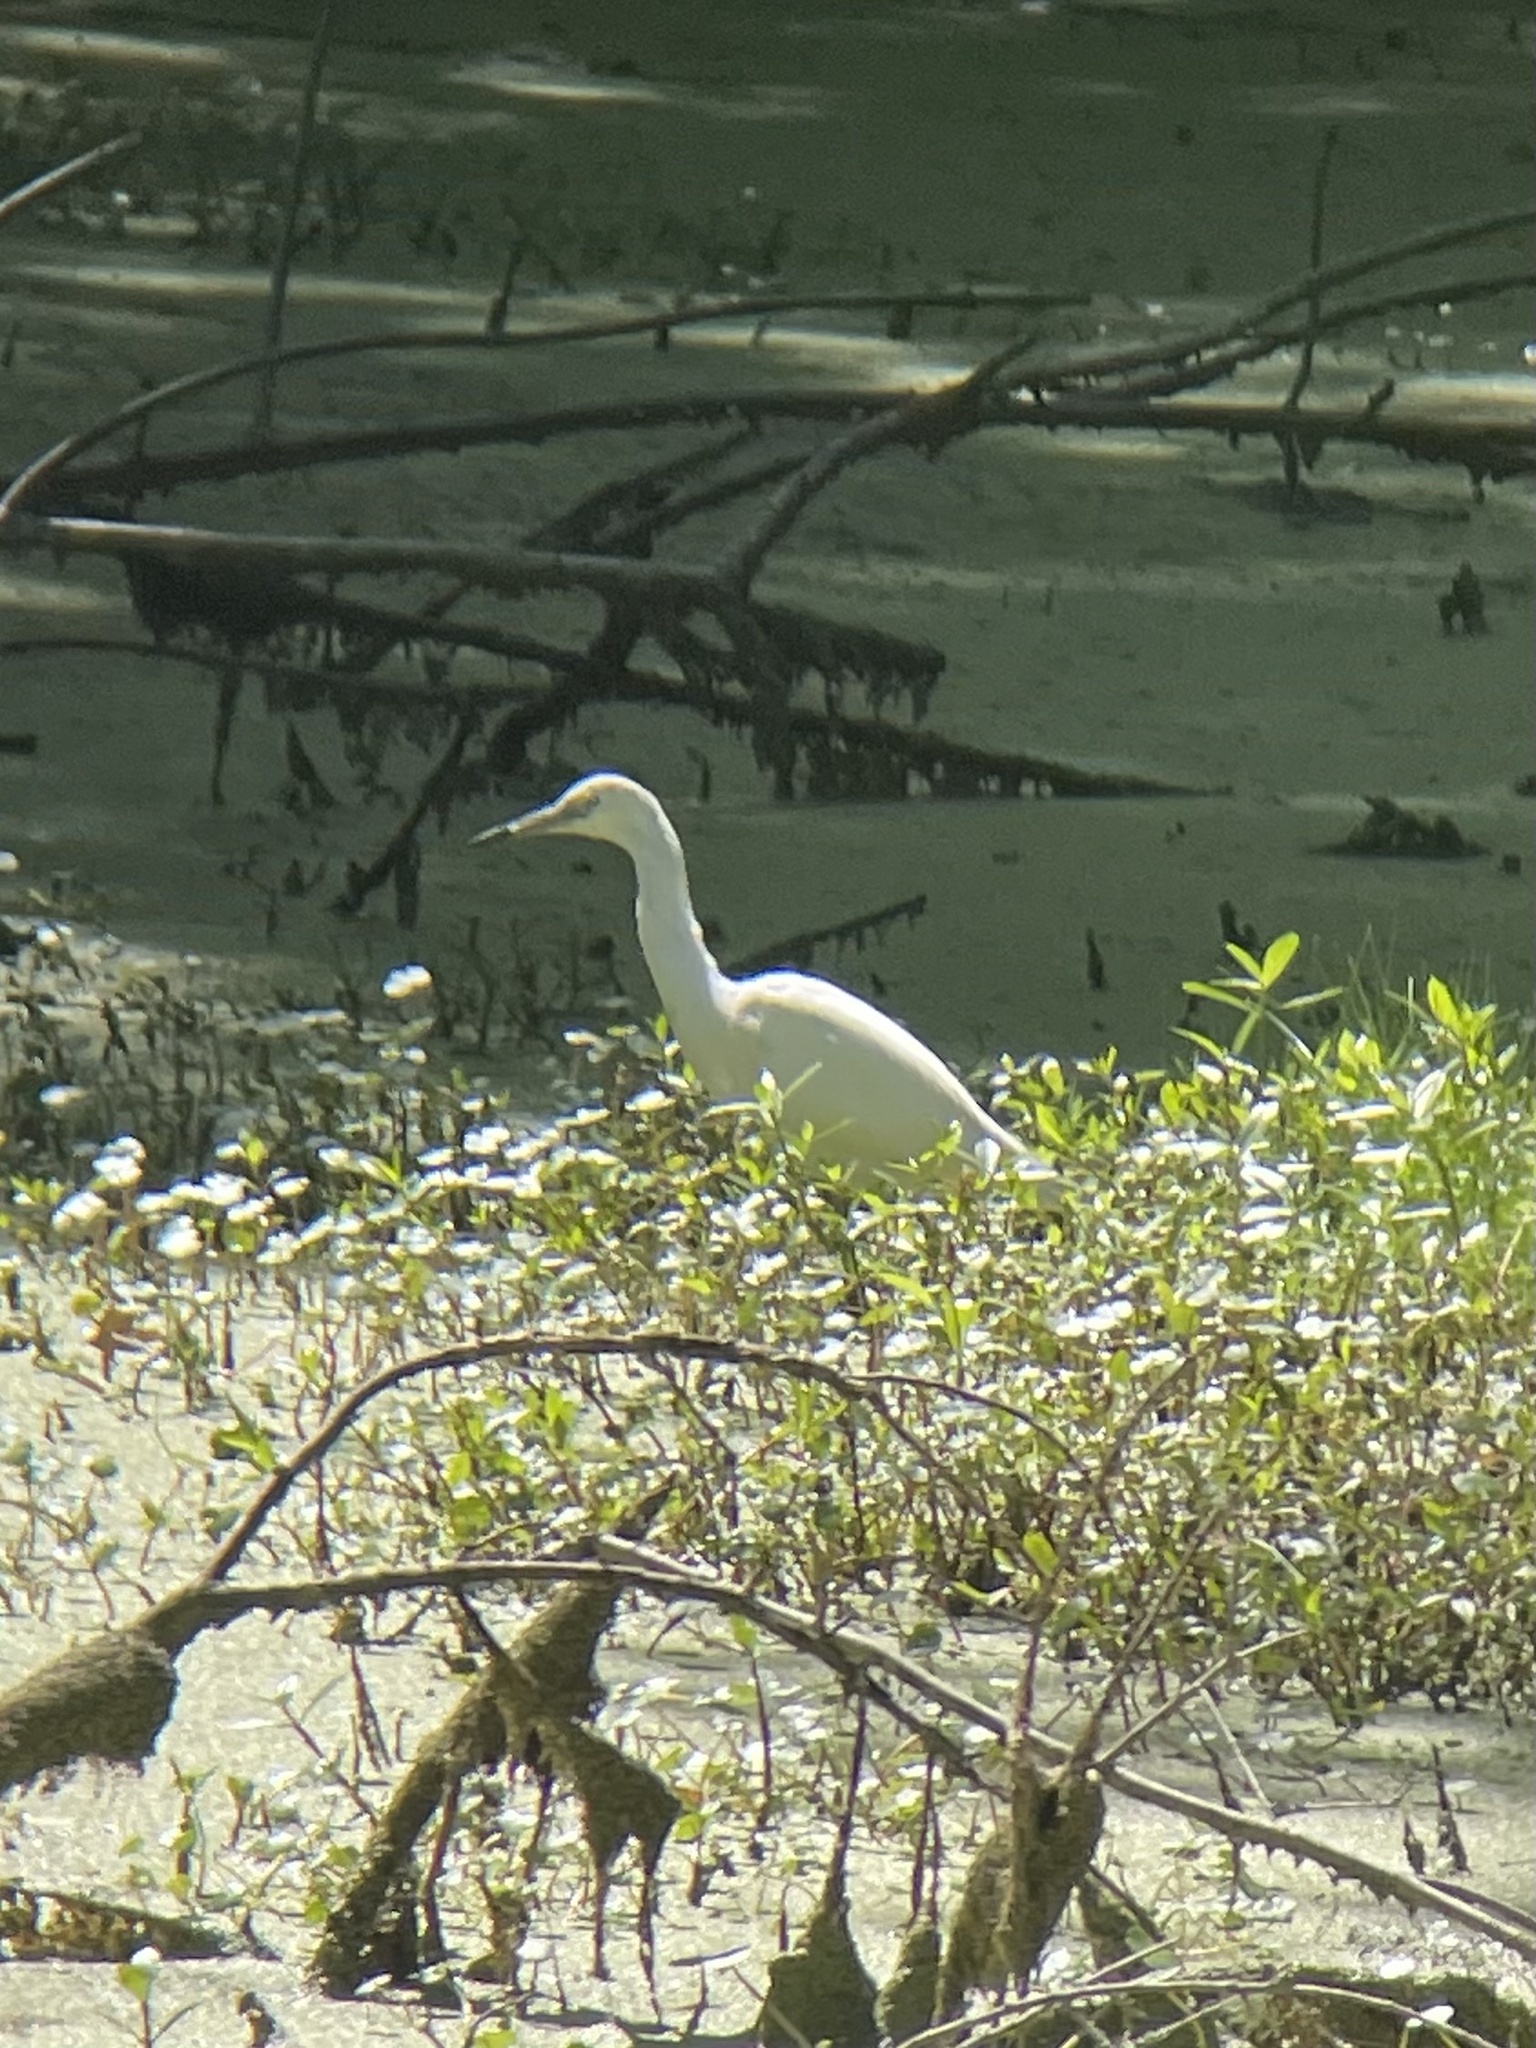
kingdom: Animalia
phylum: Chordata
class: Aves
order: Pelecaniformes
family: Ardeidae
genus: Egretta
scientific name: Egretta caerulea
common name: Little blue heron
